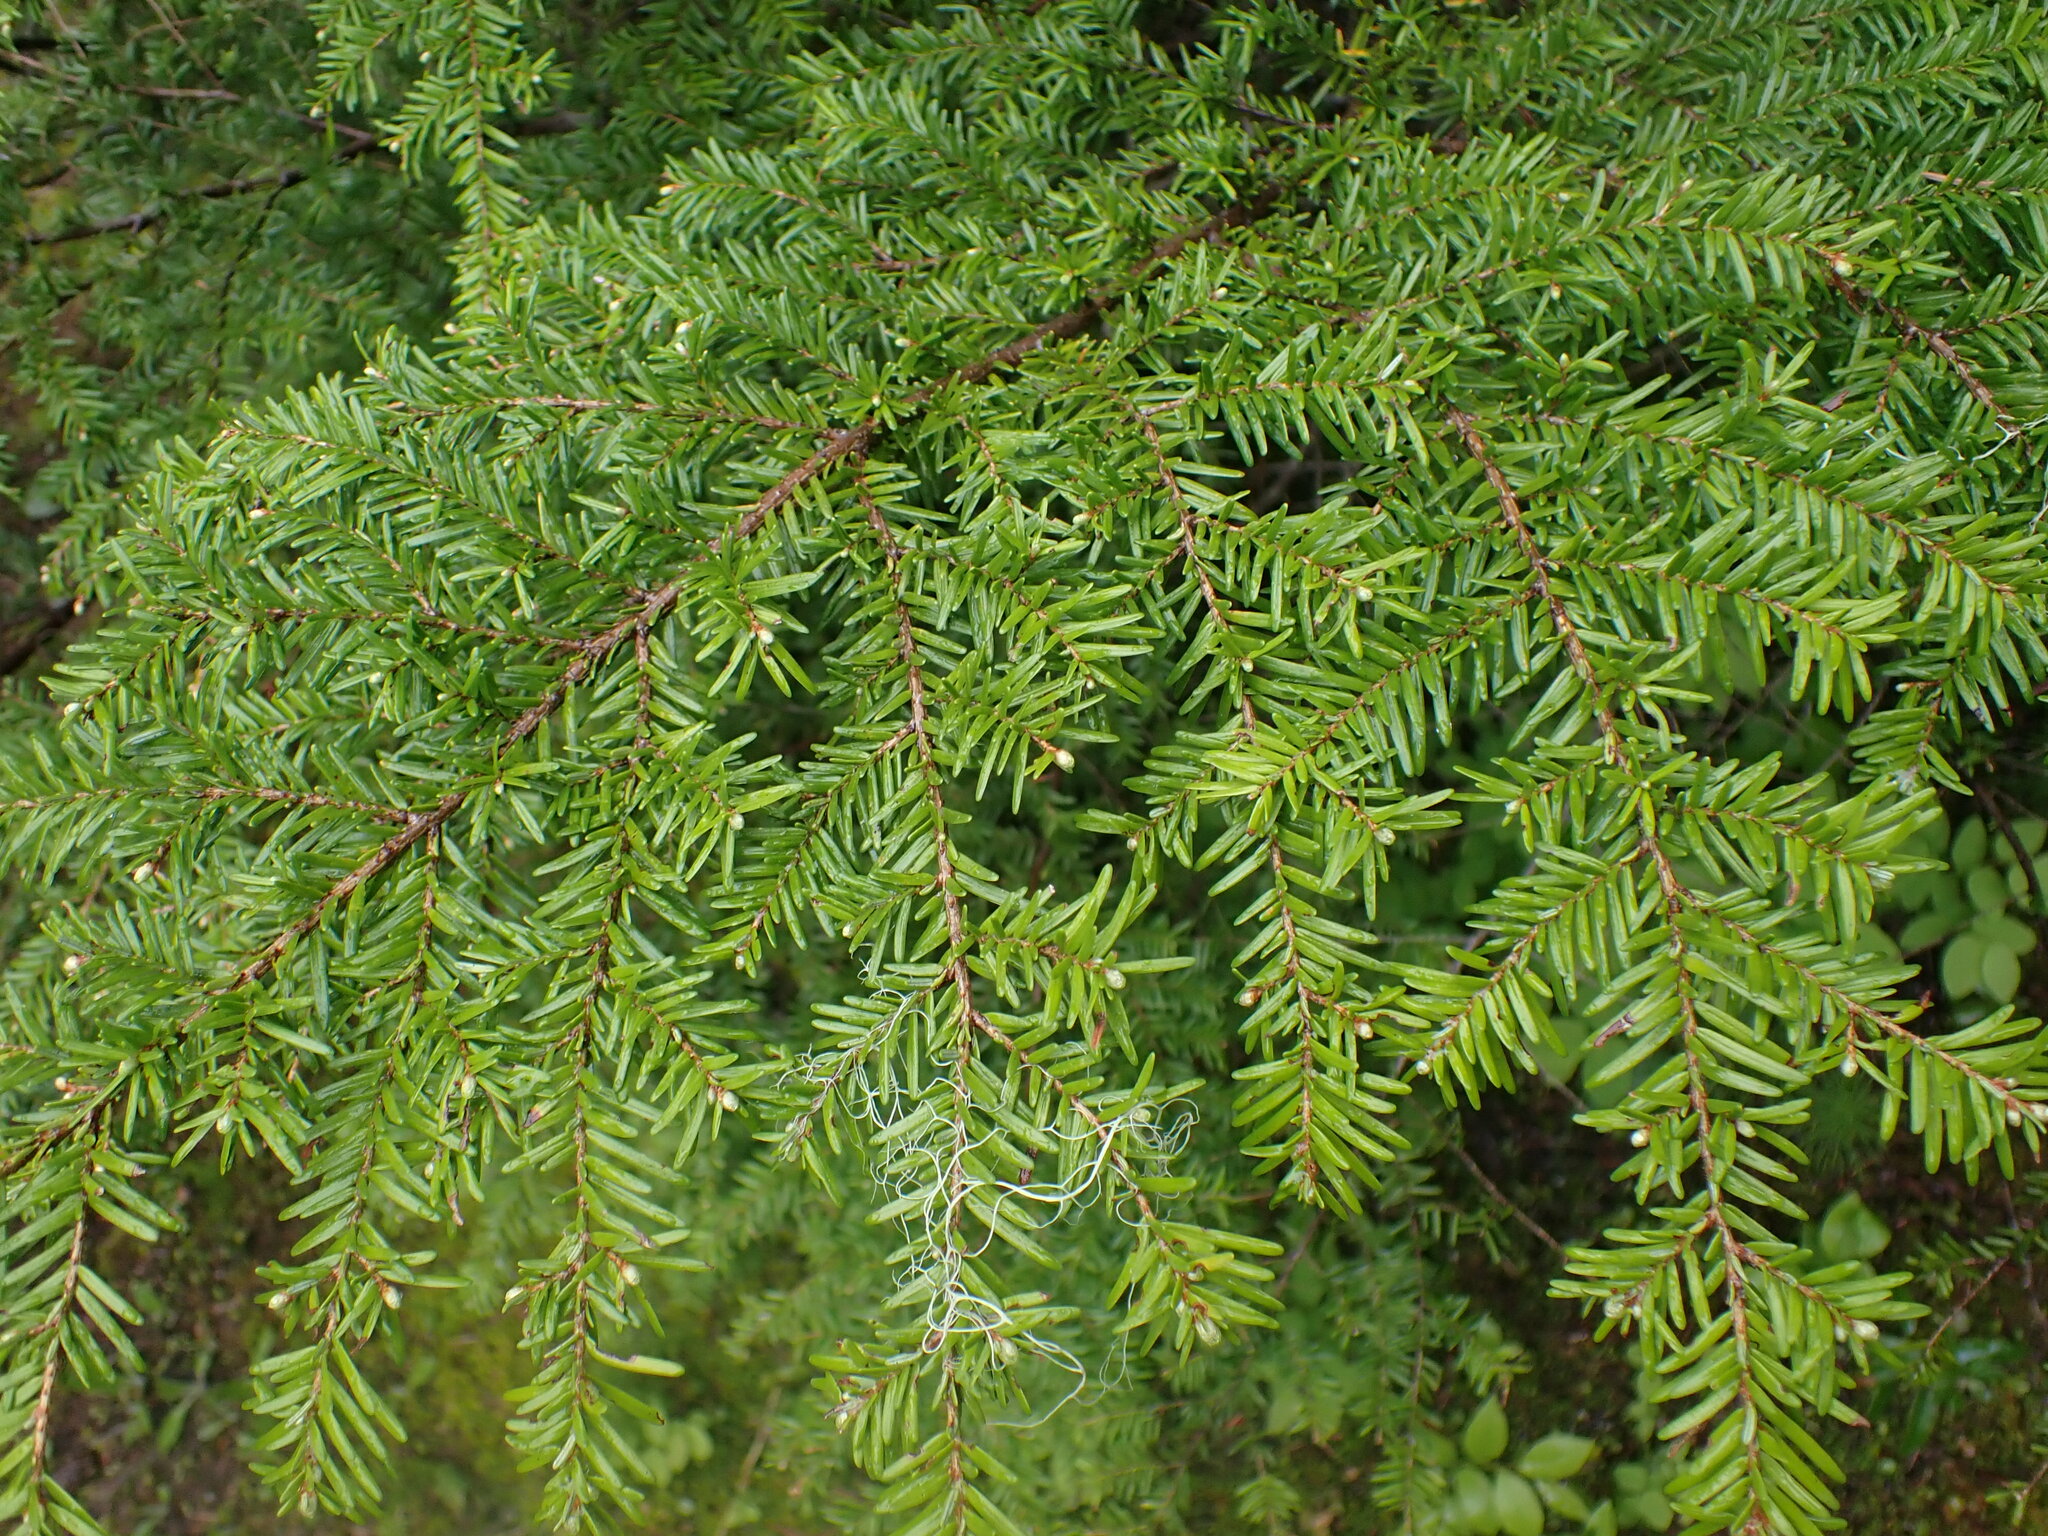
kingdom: Plantae
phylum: Tracheophyta
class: Pinopsida
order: Pinales
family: Pinaceae
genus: Tsuga
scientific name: Tsuga heterophylla
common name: Western hemlock
